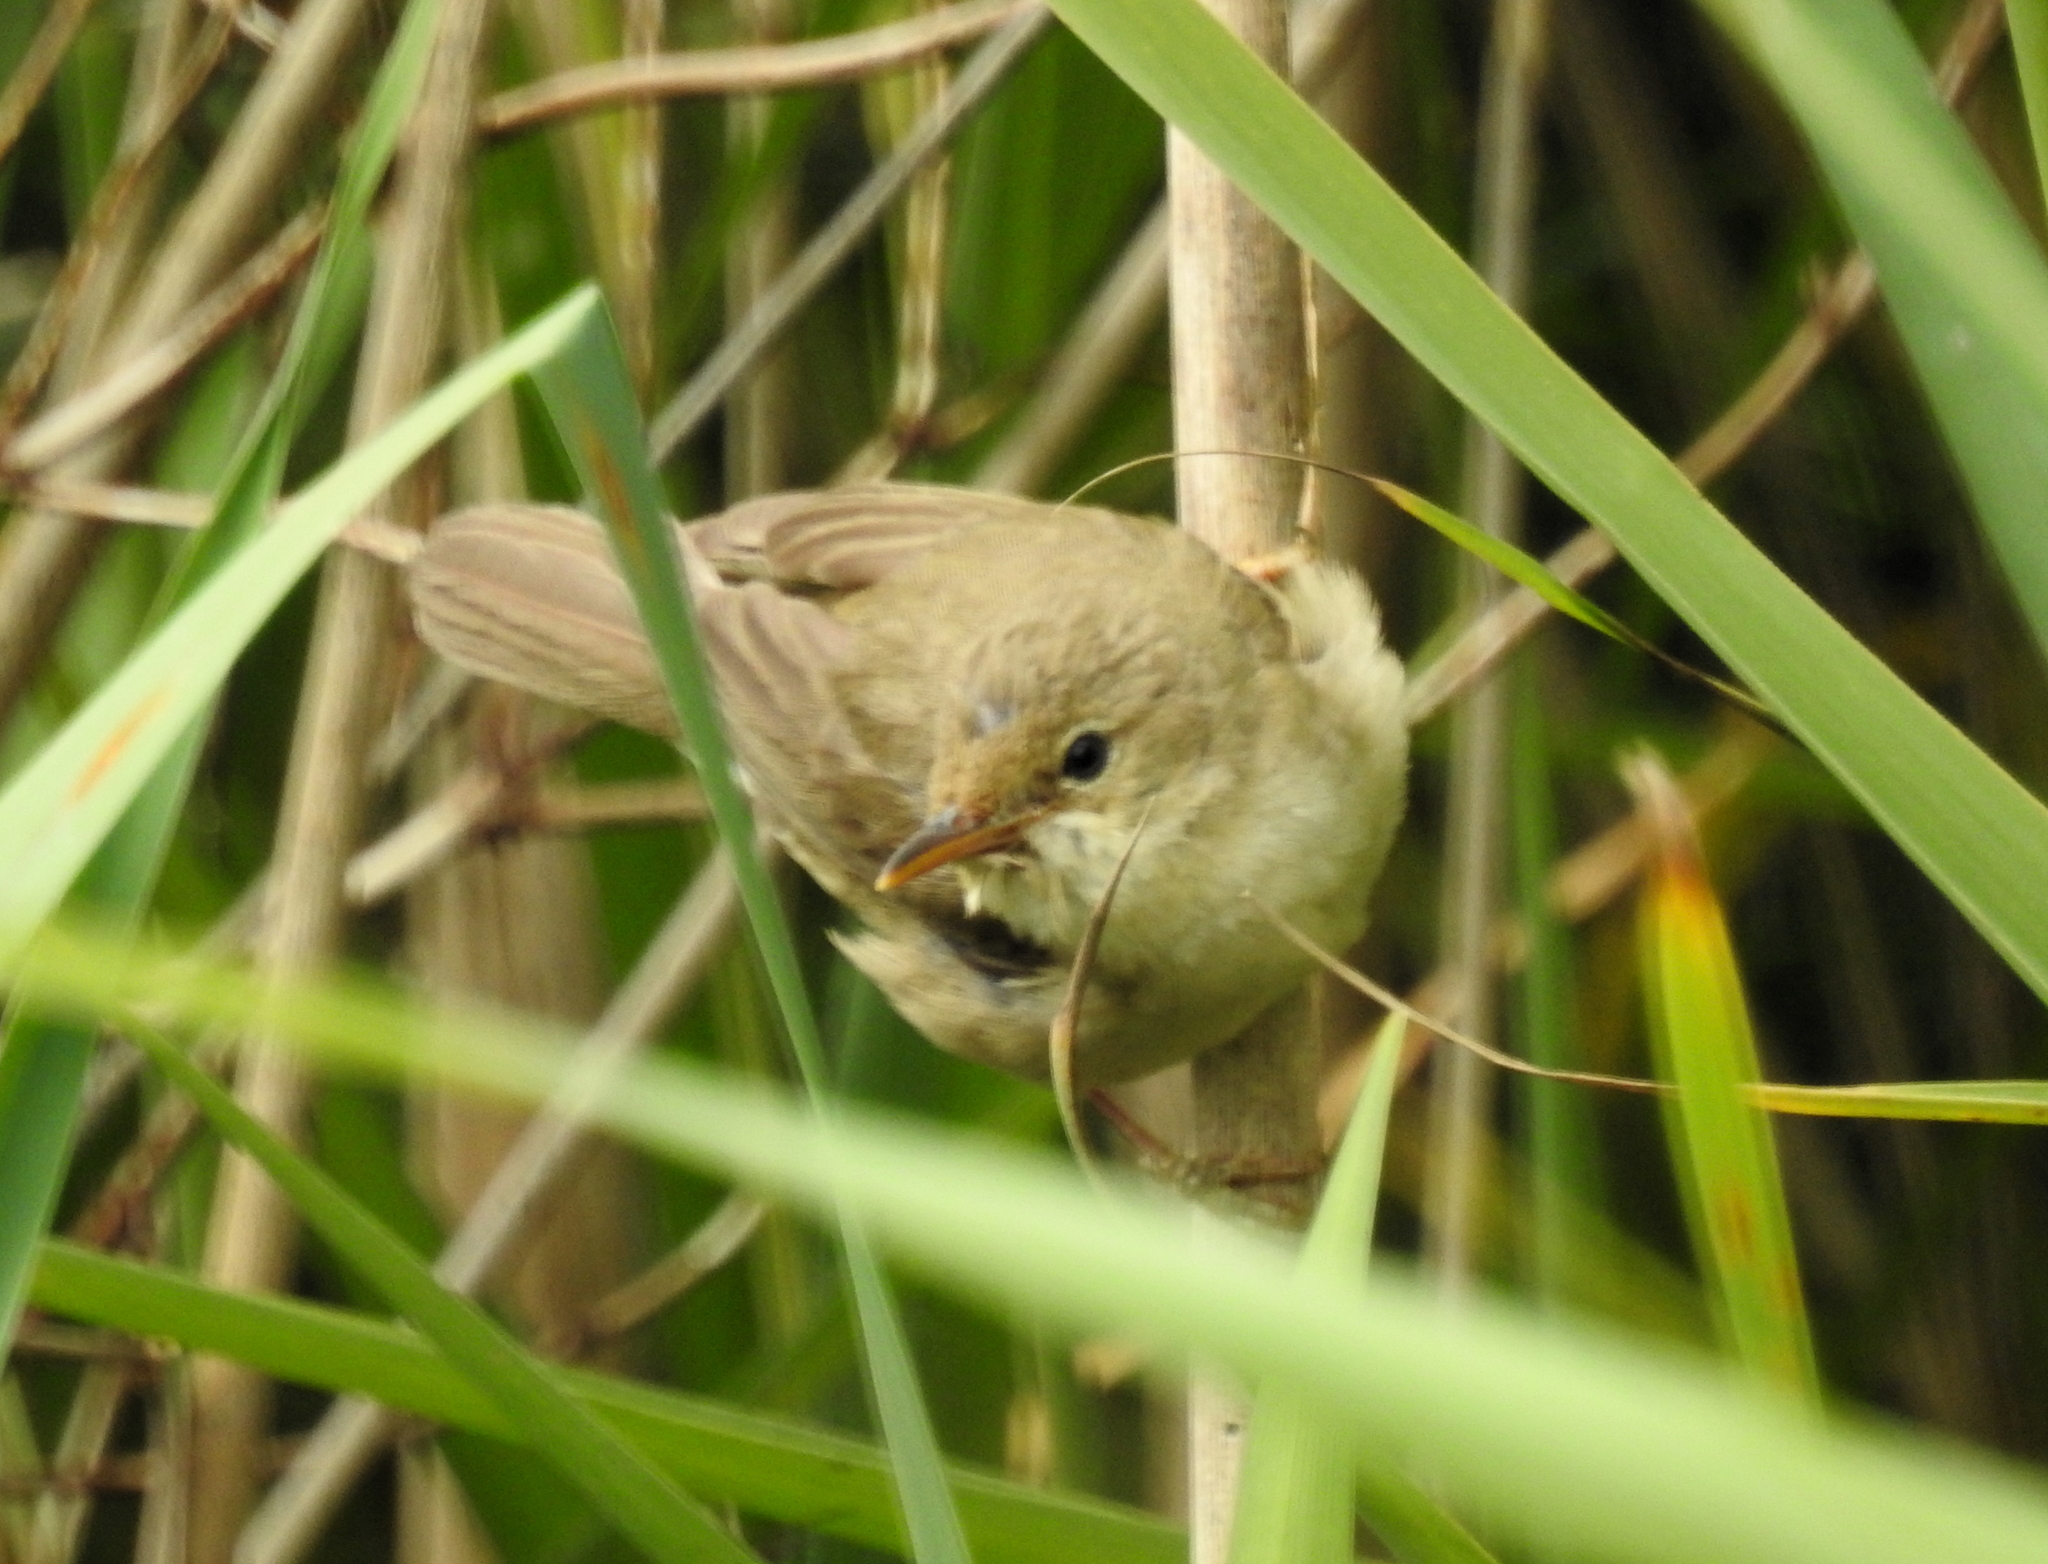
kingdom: Animalia
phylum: Chordata
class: Aves
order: Passeriformes
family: Acrocephalidae
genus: Acrocephalus
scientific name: Acrocephalus scirpaceus
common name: Eurasian reed warbler
